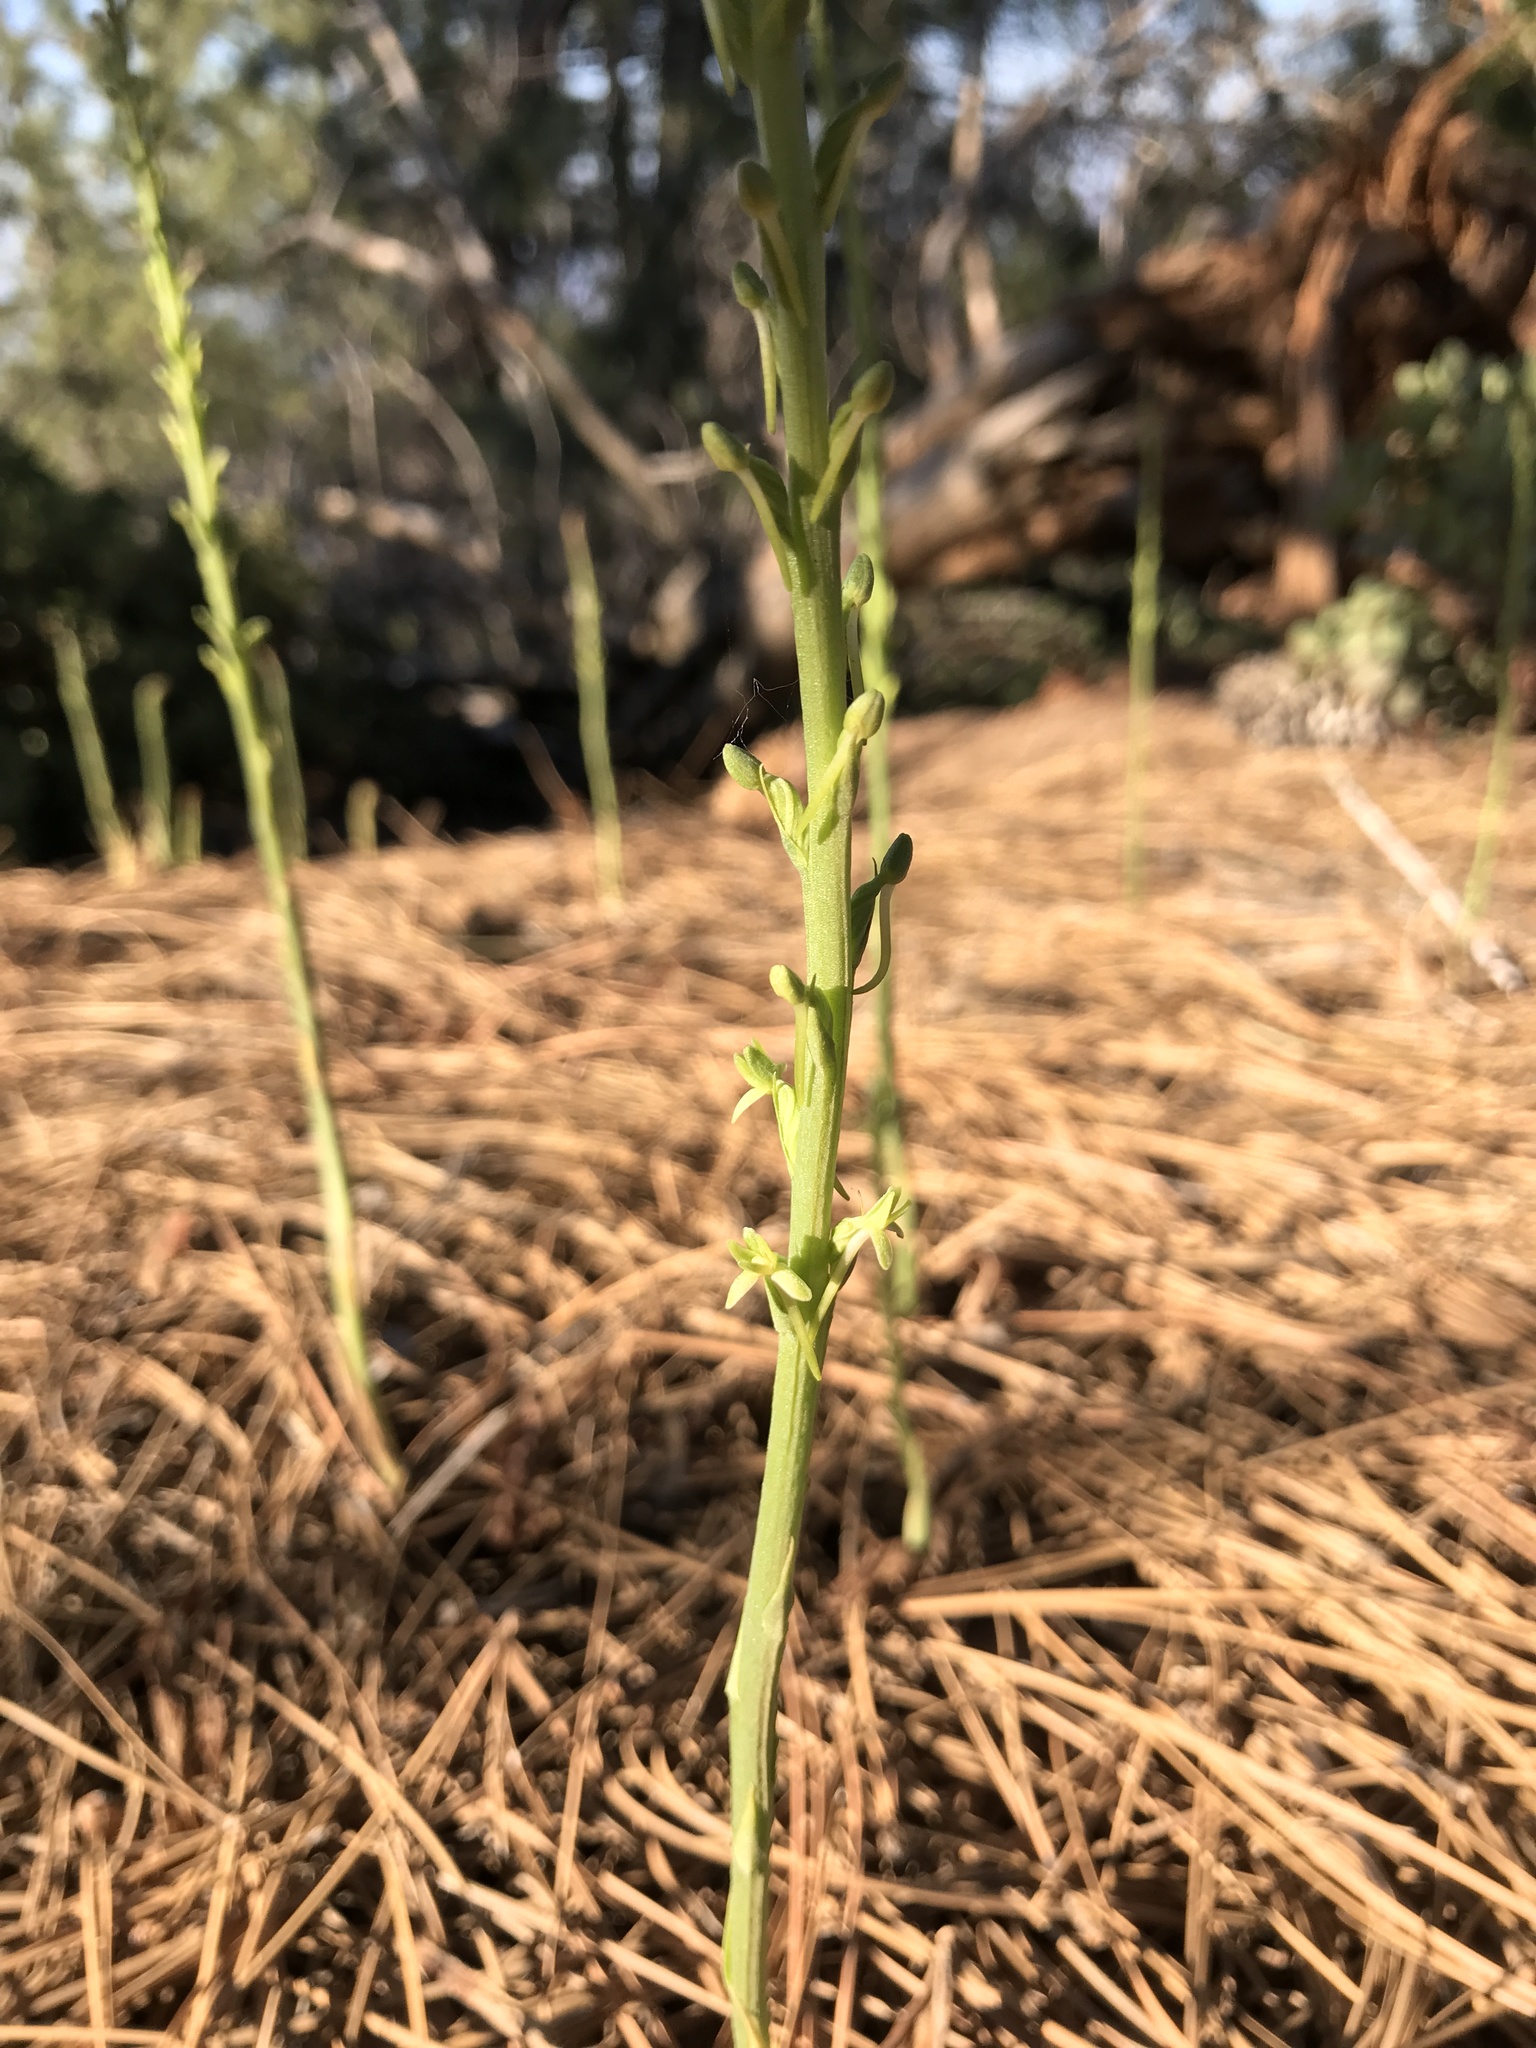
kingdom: Plantae
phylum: Tracheophyta
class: Liliopsida
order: Asparagales
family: Orchidaceae
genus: Platanthera
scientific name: Platanthera elongata
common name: Dense-flowered rein orchid
